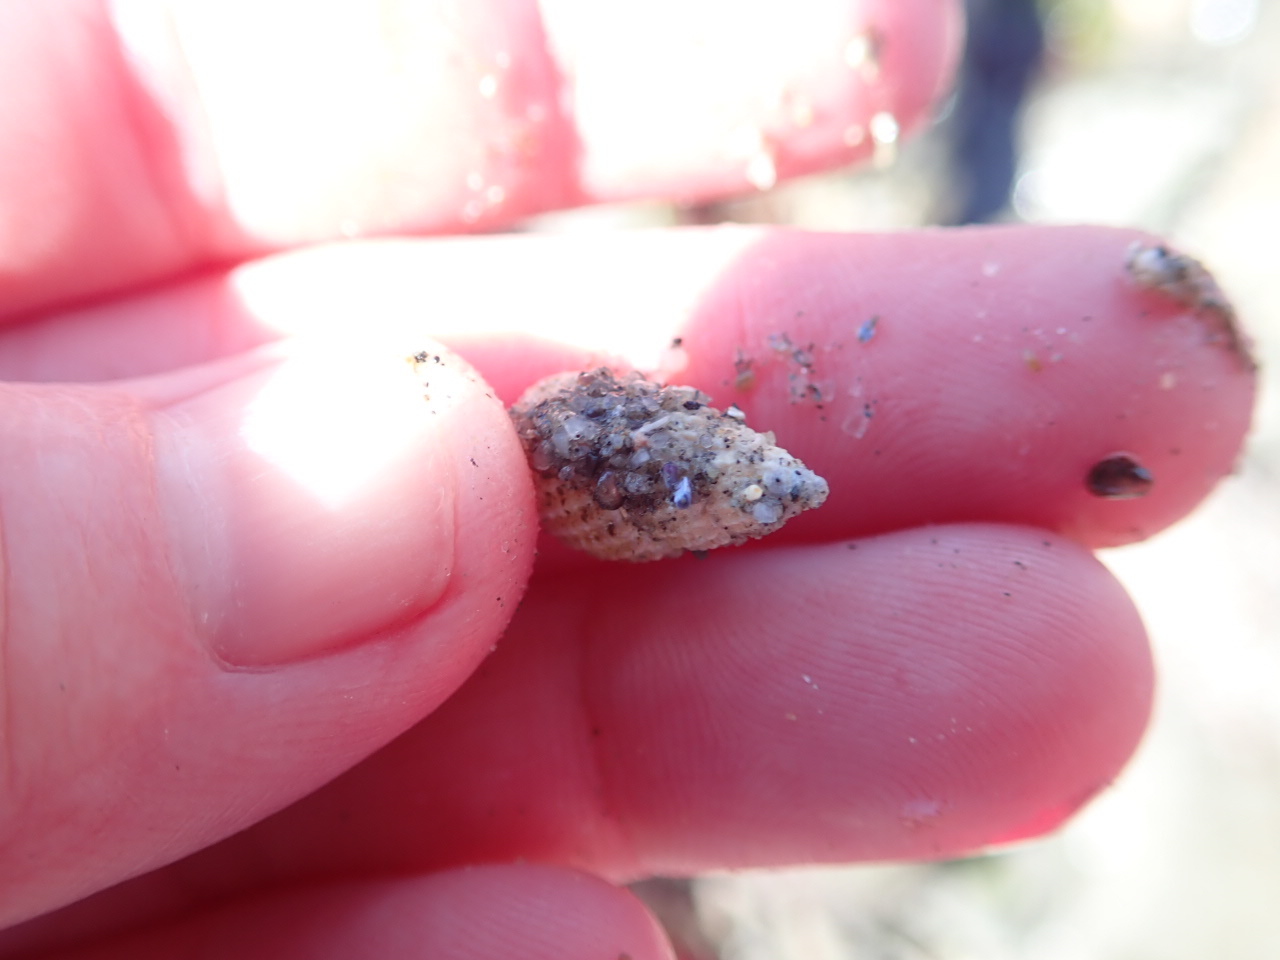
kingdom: Animalia
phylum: Mollusca
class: Gastropoda
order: Neogastropoda
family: Nassariidae
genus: Ilyanassa
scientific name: Ilyanassa trivittata
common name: Three-line mudsnail
